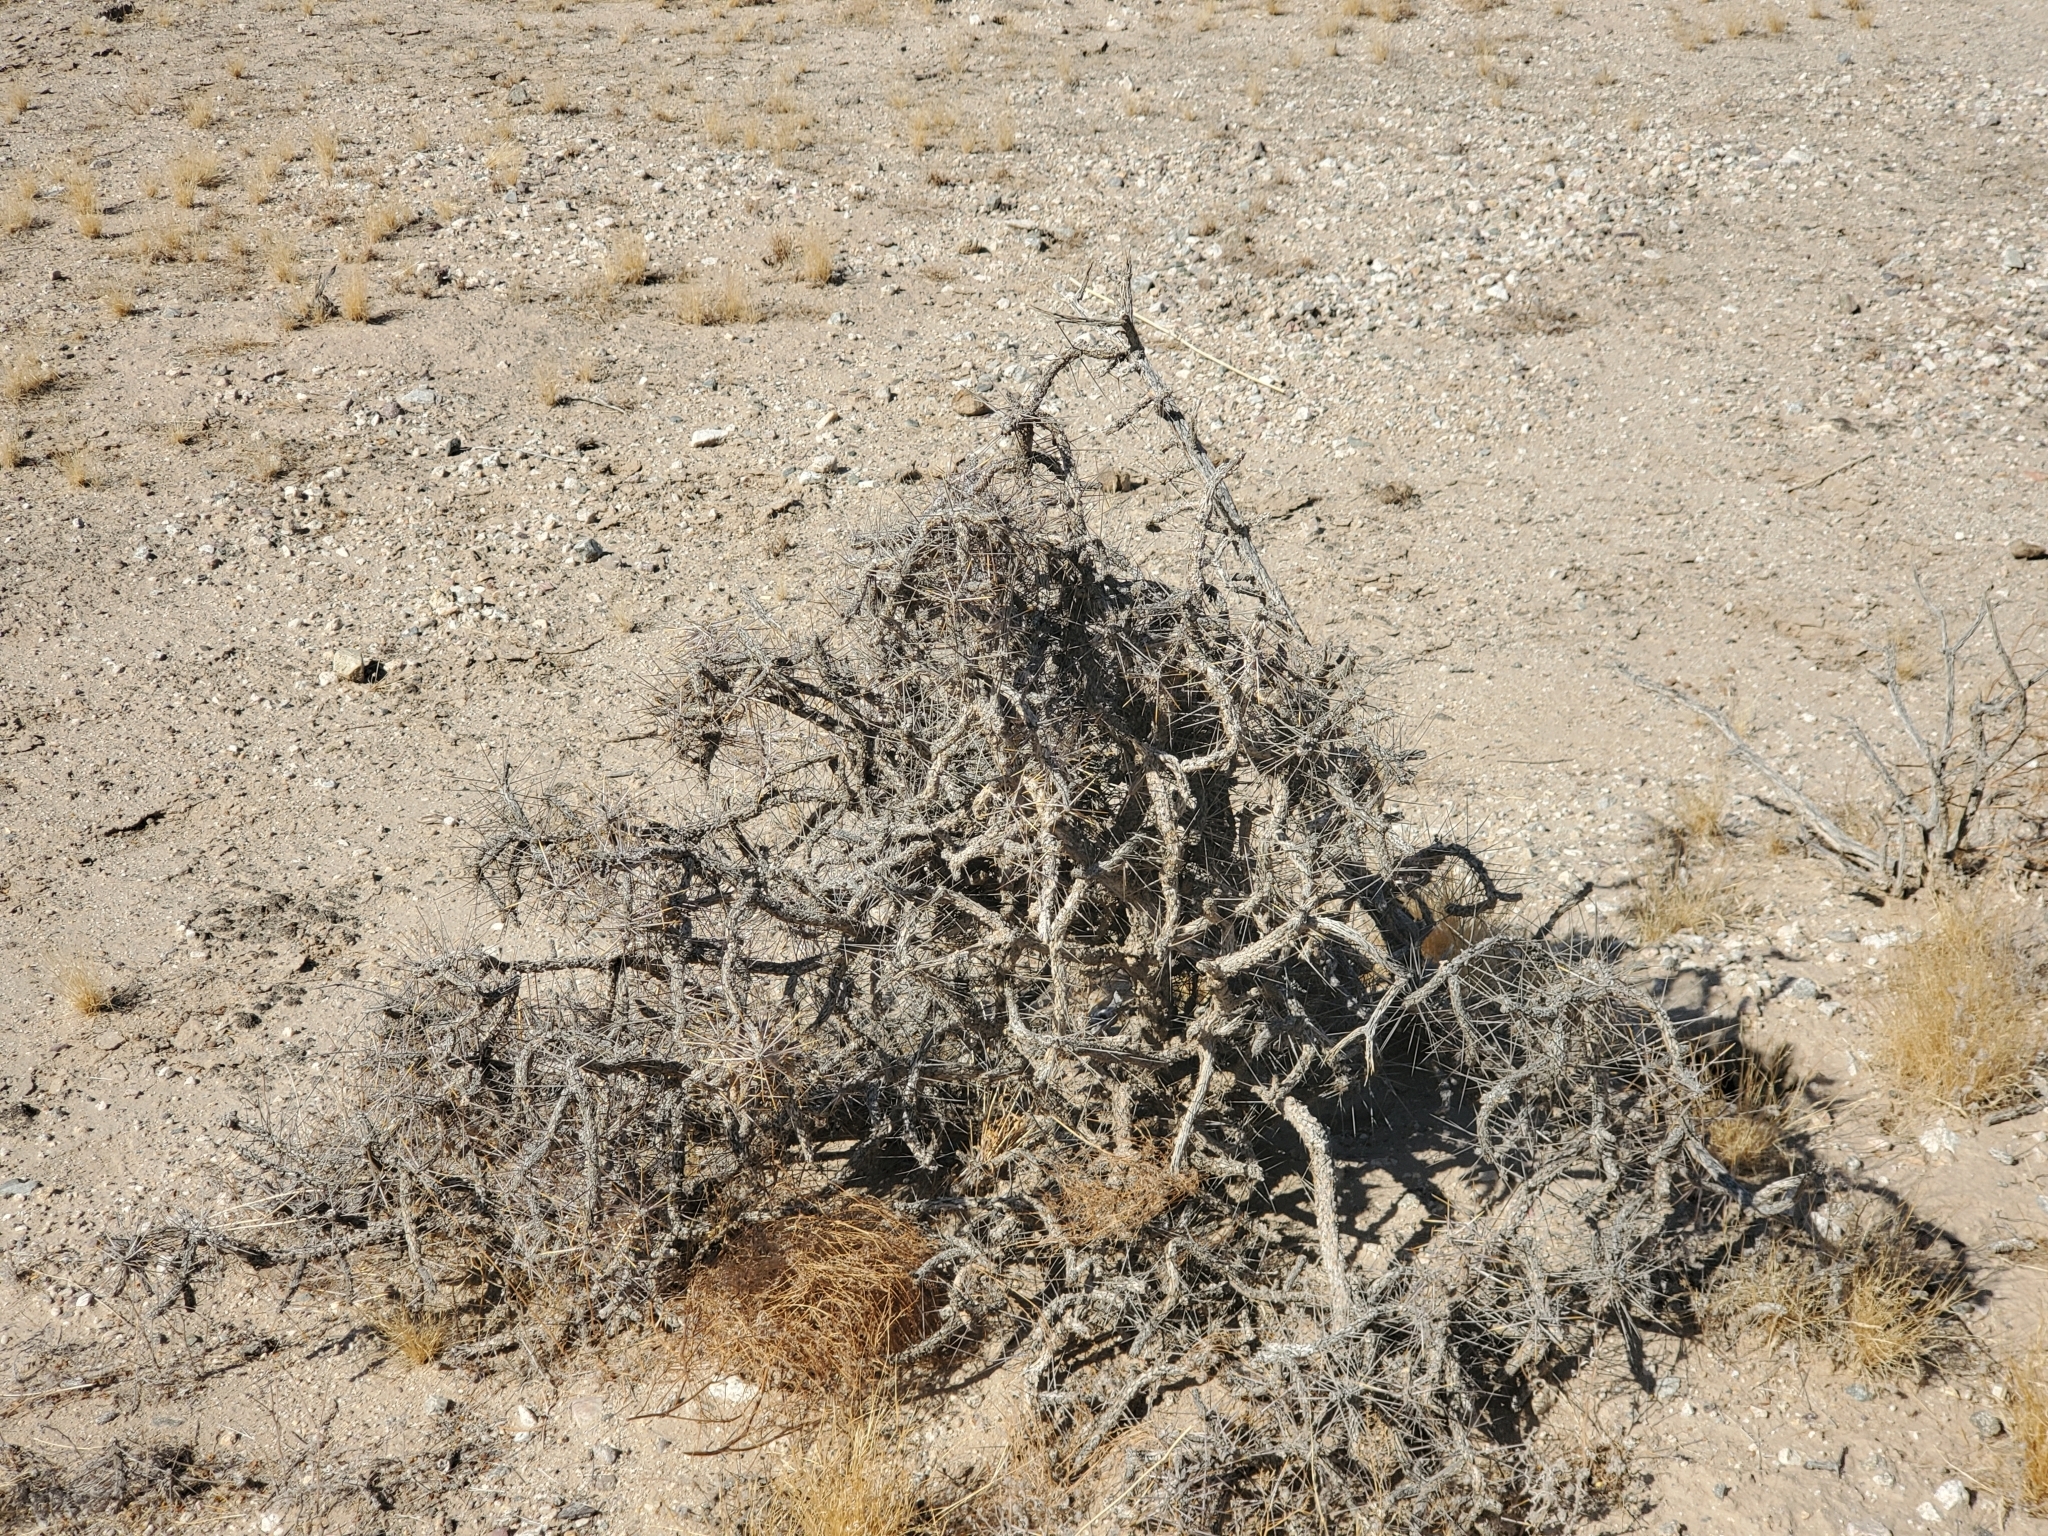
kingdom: Plantae
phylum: Tracheophyta
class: Magnoliopsida
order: Caryophyllales
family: Cactaceae
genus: Cylindropuntia
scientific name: Cylindropuntia ramosissima
